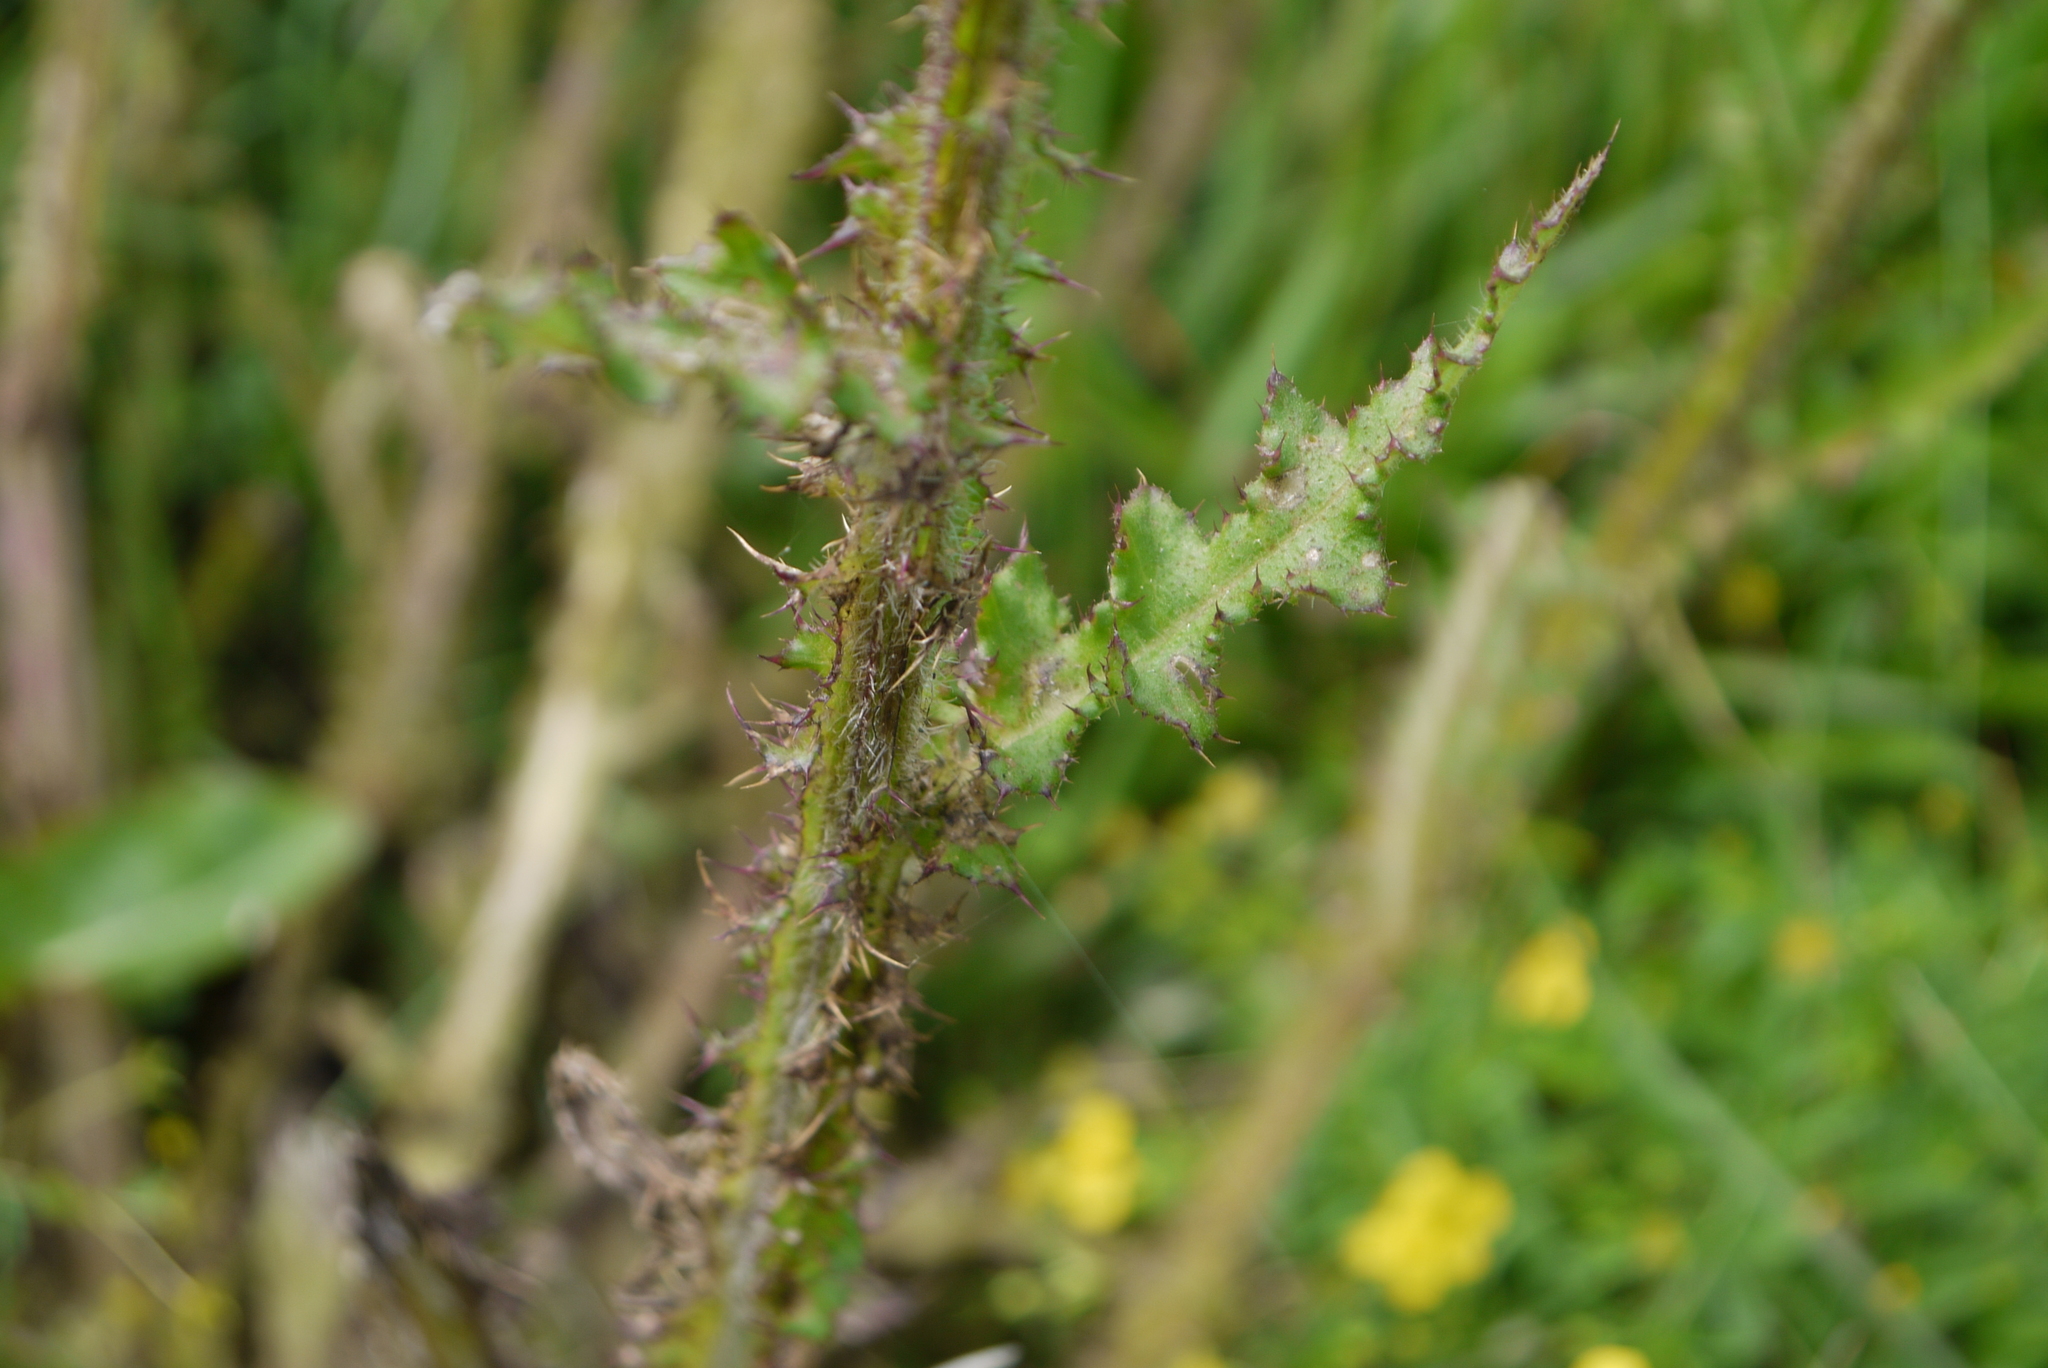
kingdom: Plantae
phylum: Tracheophyta
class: Magnoliopsida
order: Asterales
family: Asteraceae
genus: Cirsium
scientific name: Cirsium palustre
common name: Marsh thistle
